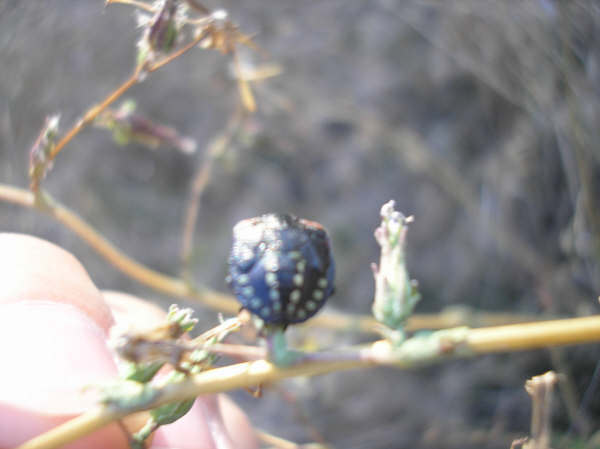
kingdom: Animalia
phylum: Arthropoda
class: Insecta
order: Hemiptera
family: Pentatomidae
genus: Nezara
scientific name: Nezara viridula
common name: Southern green stink bug
